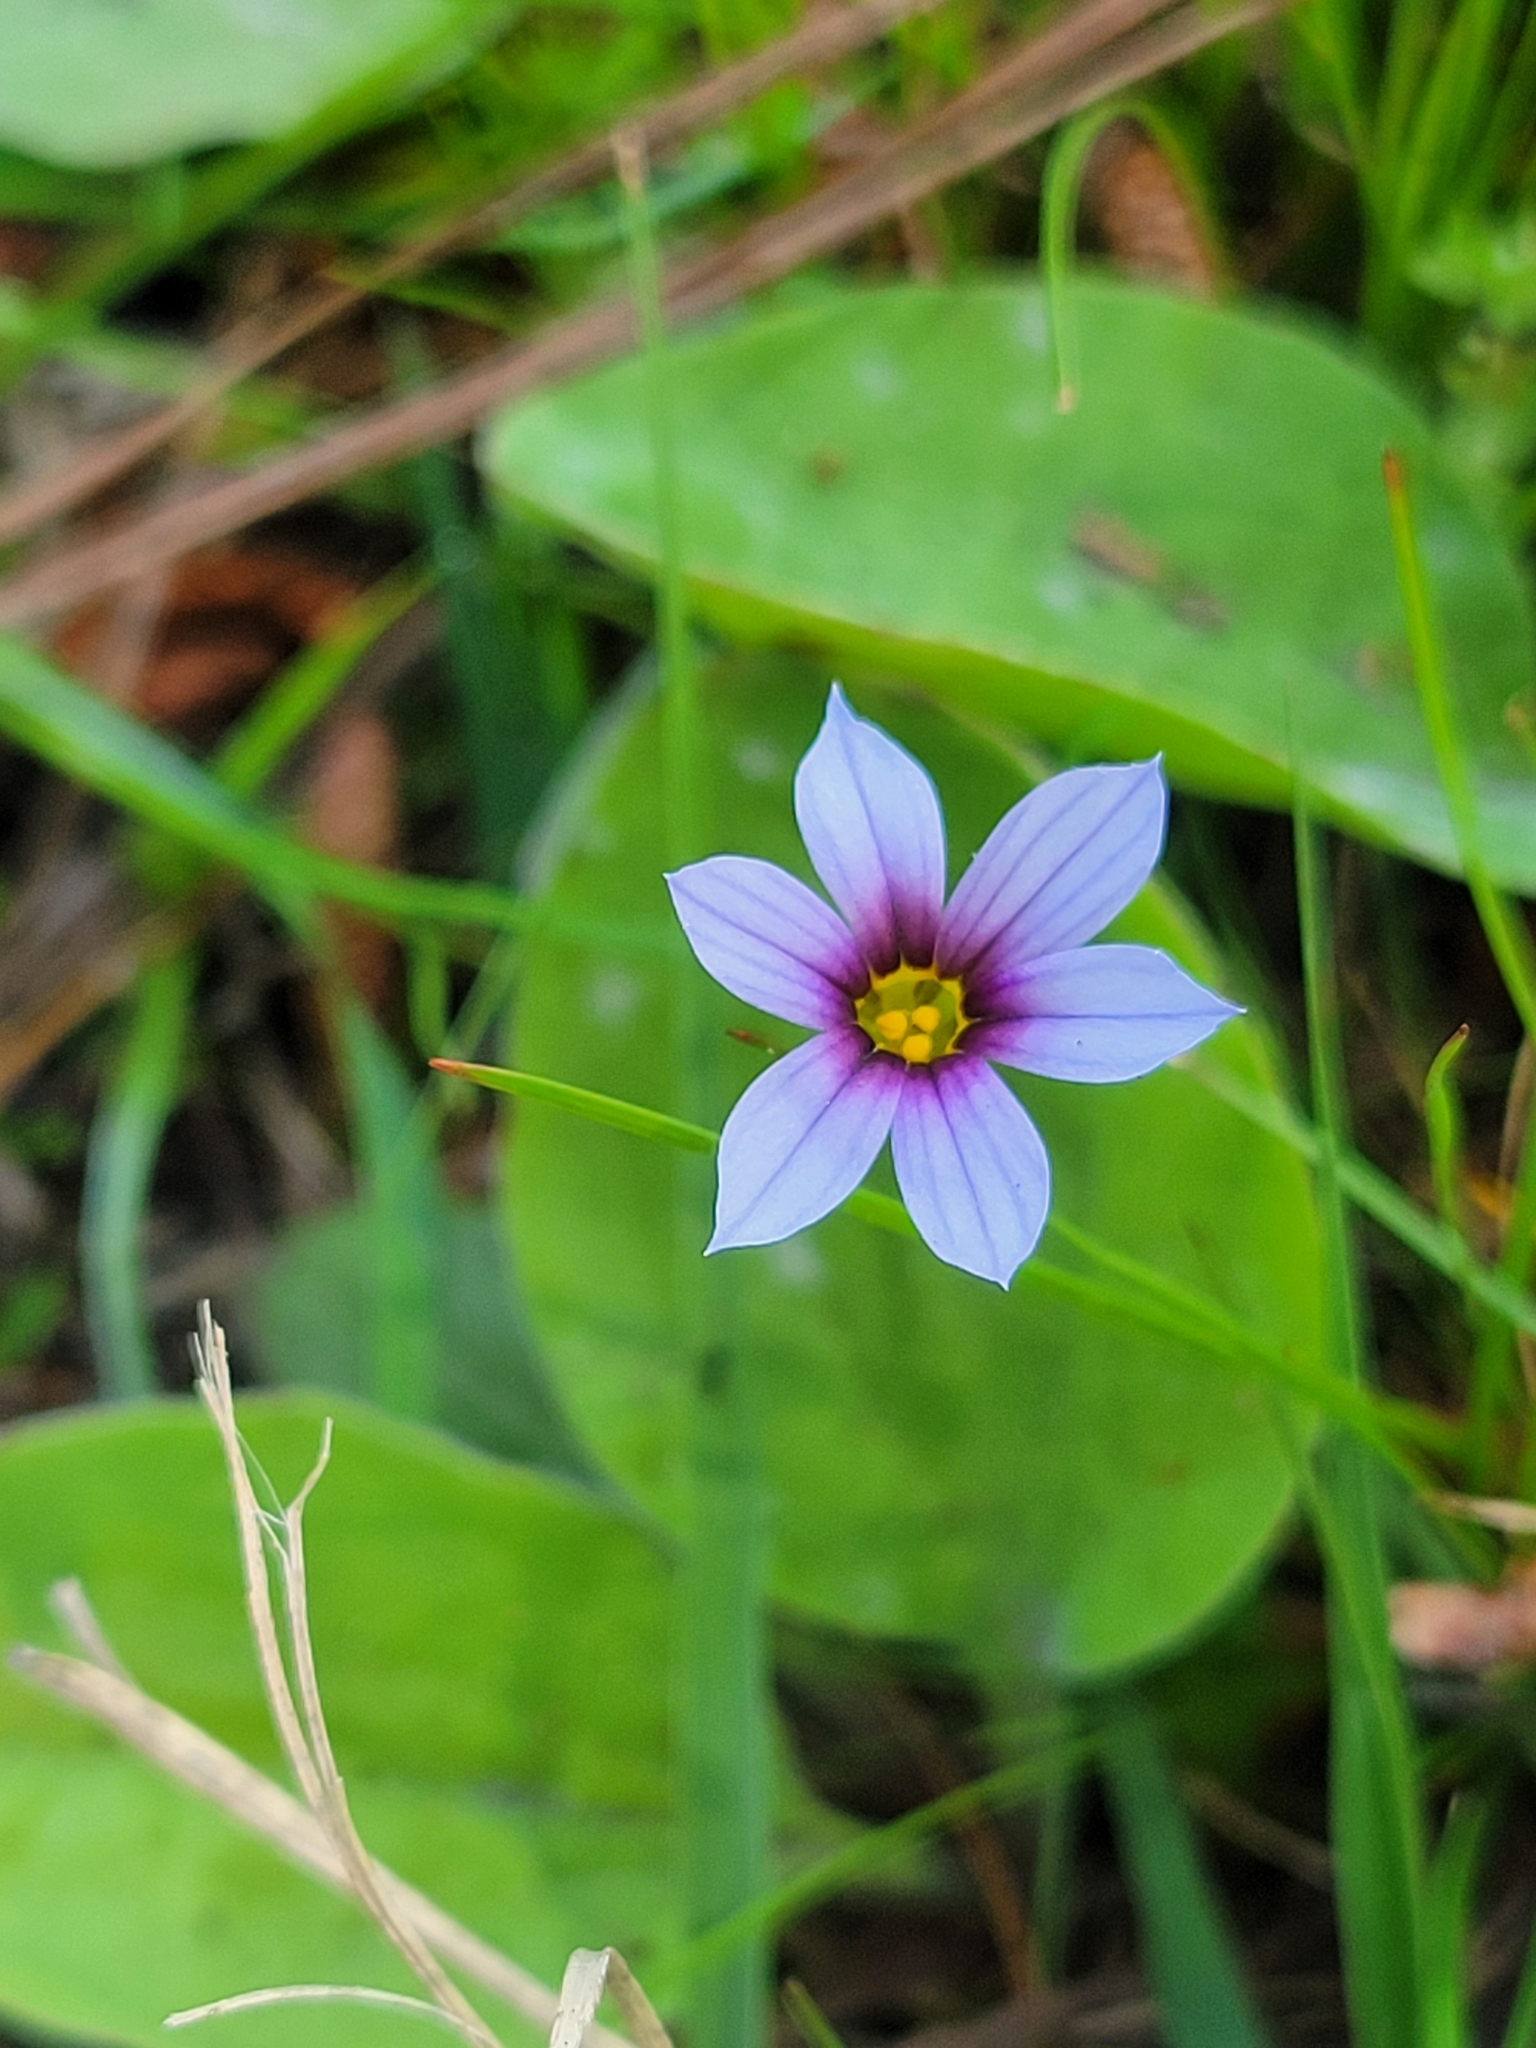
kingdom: Plantae
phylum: Tracheophyta
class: Liliopsida
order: Asparagales
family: Iridaceae
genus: Sisyrinchium
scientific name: Sisyrinchium micranthum
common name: Bermuda pigroot
